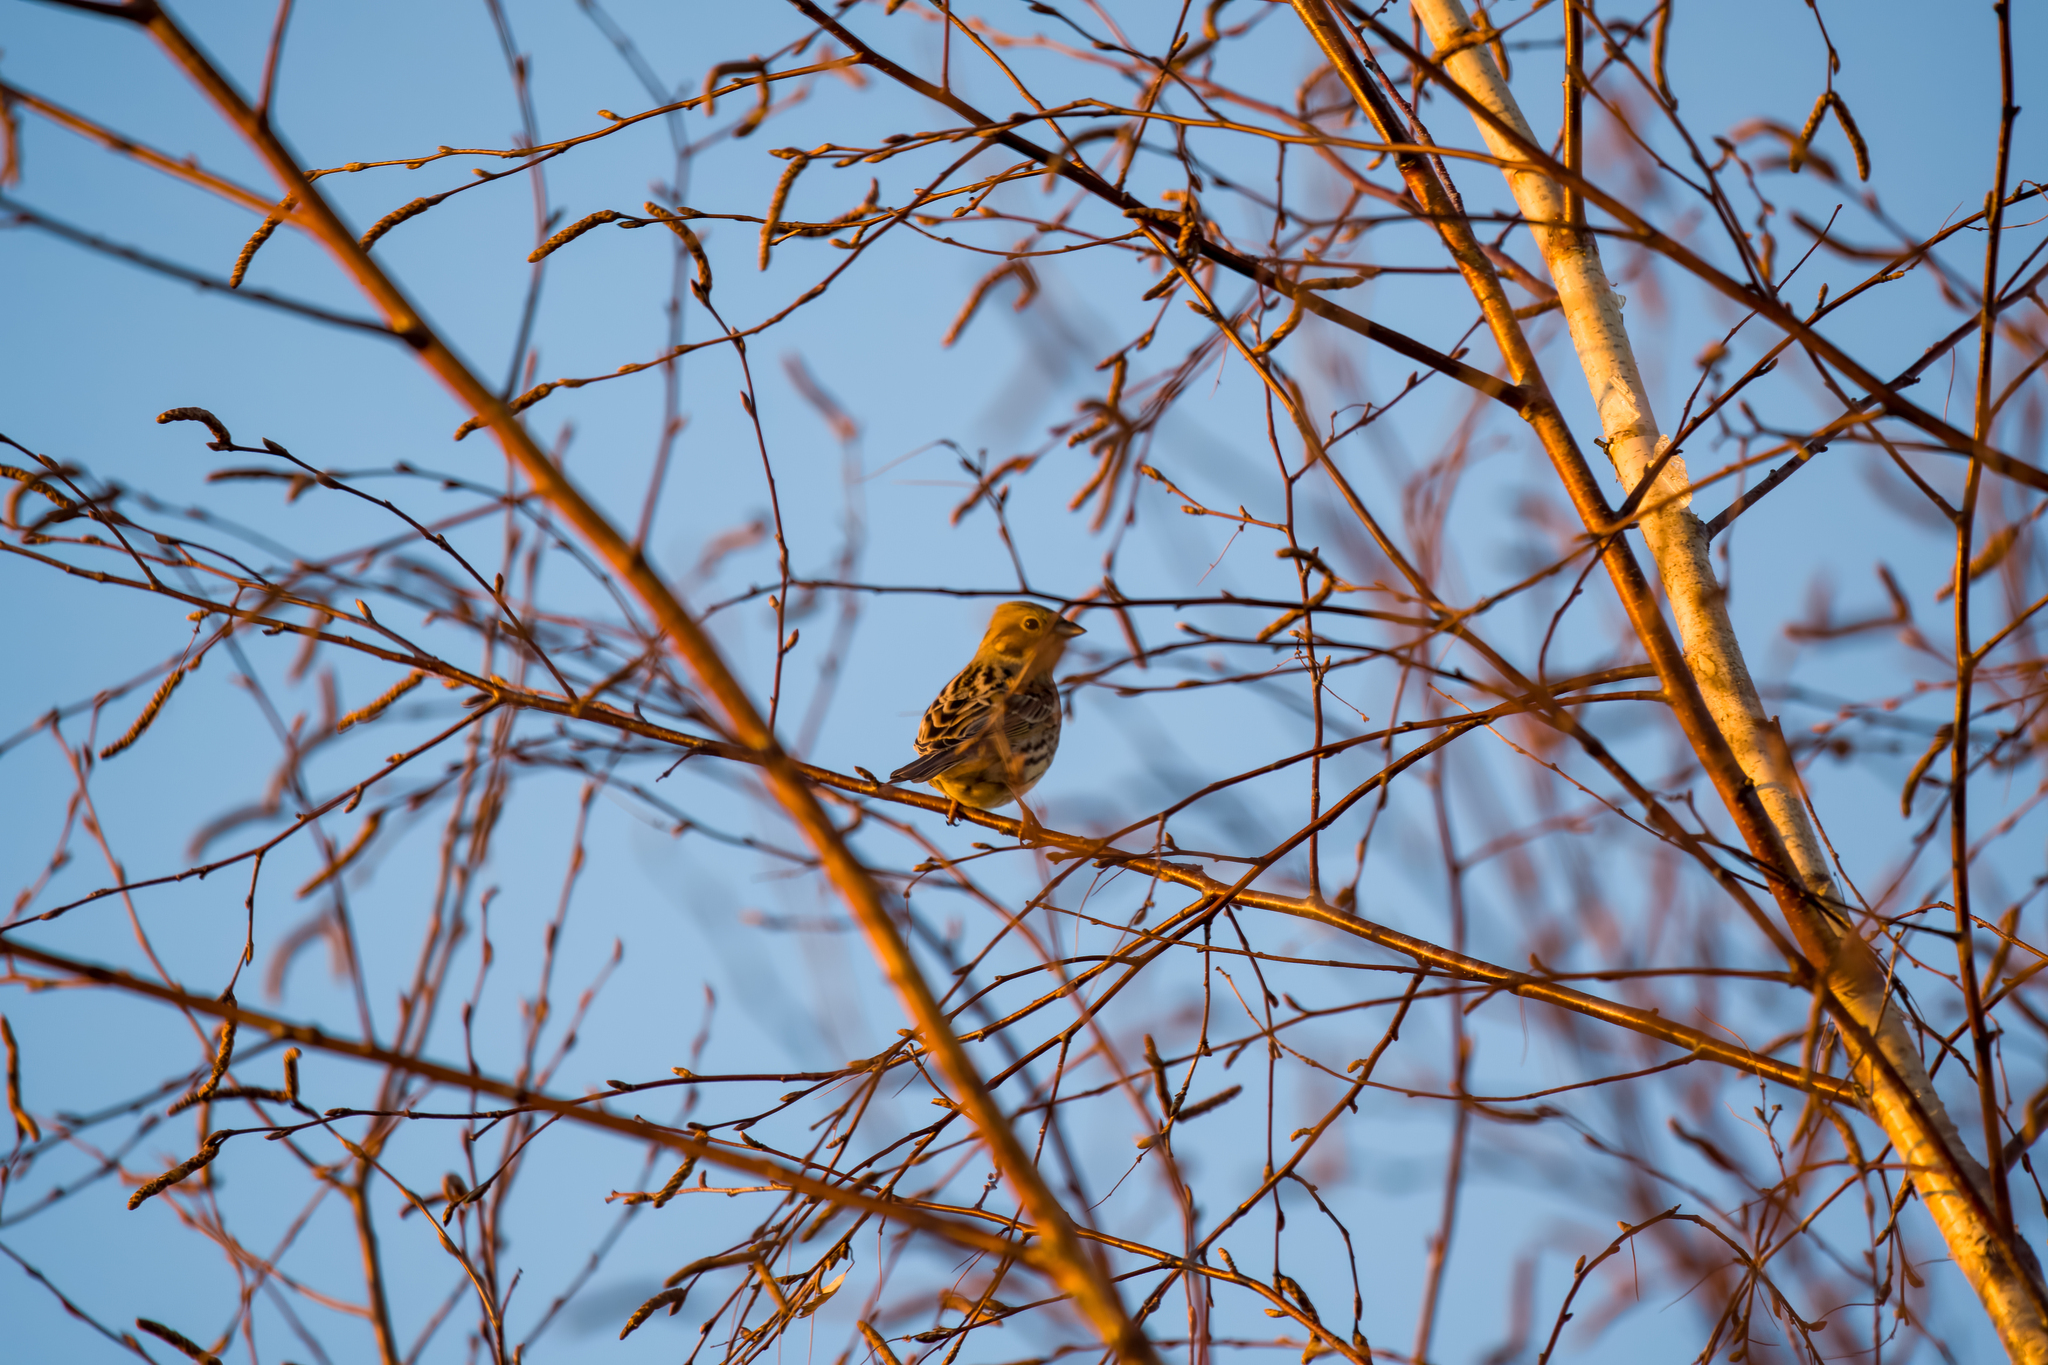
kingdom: Animalia
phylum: Chordata
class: Aves
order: Passeriformes
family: Emberizidae
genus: Emberiza
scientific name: Emberiza citrinella
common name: Yellowhammer
